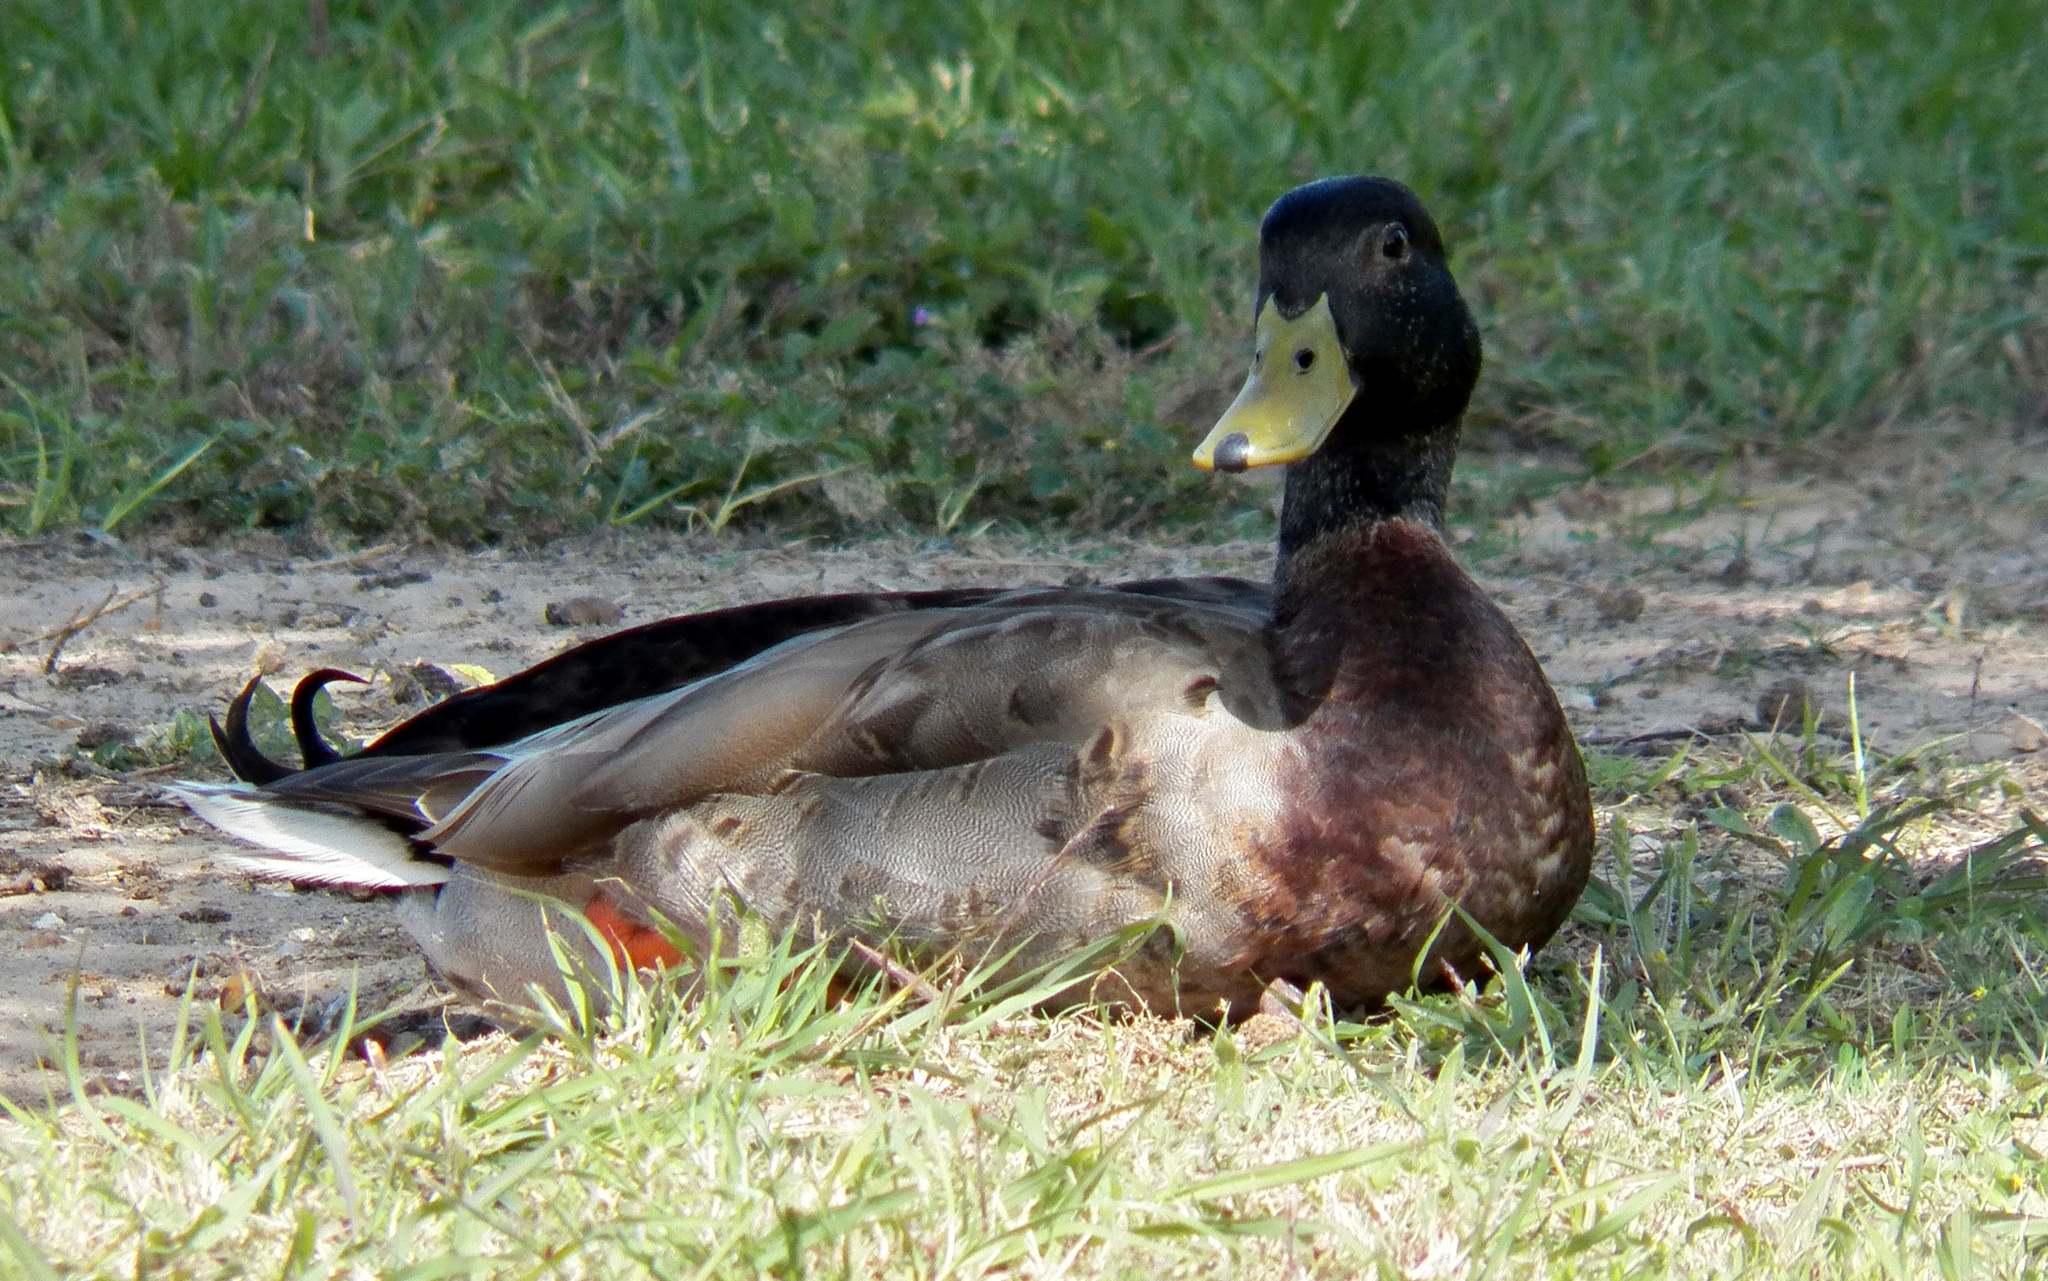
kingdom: Animalia
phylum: Chordata
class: Aves
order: Anseriformes
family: Anatidae
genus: Anas
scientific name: Anas platyrhynchos
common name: Mallard
